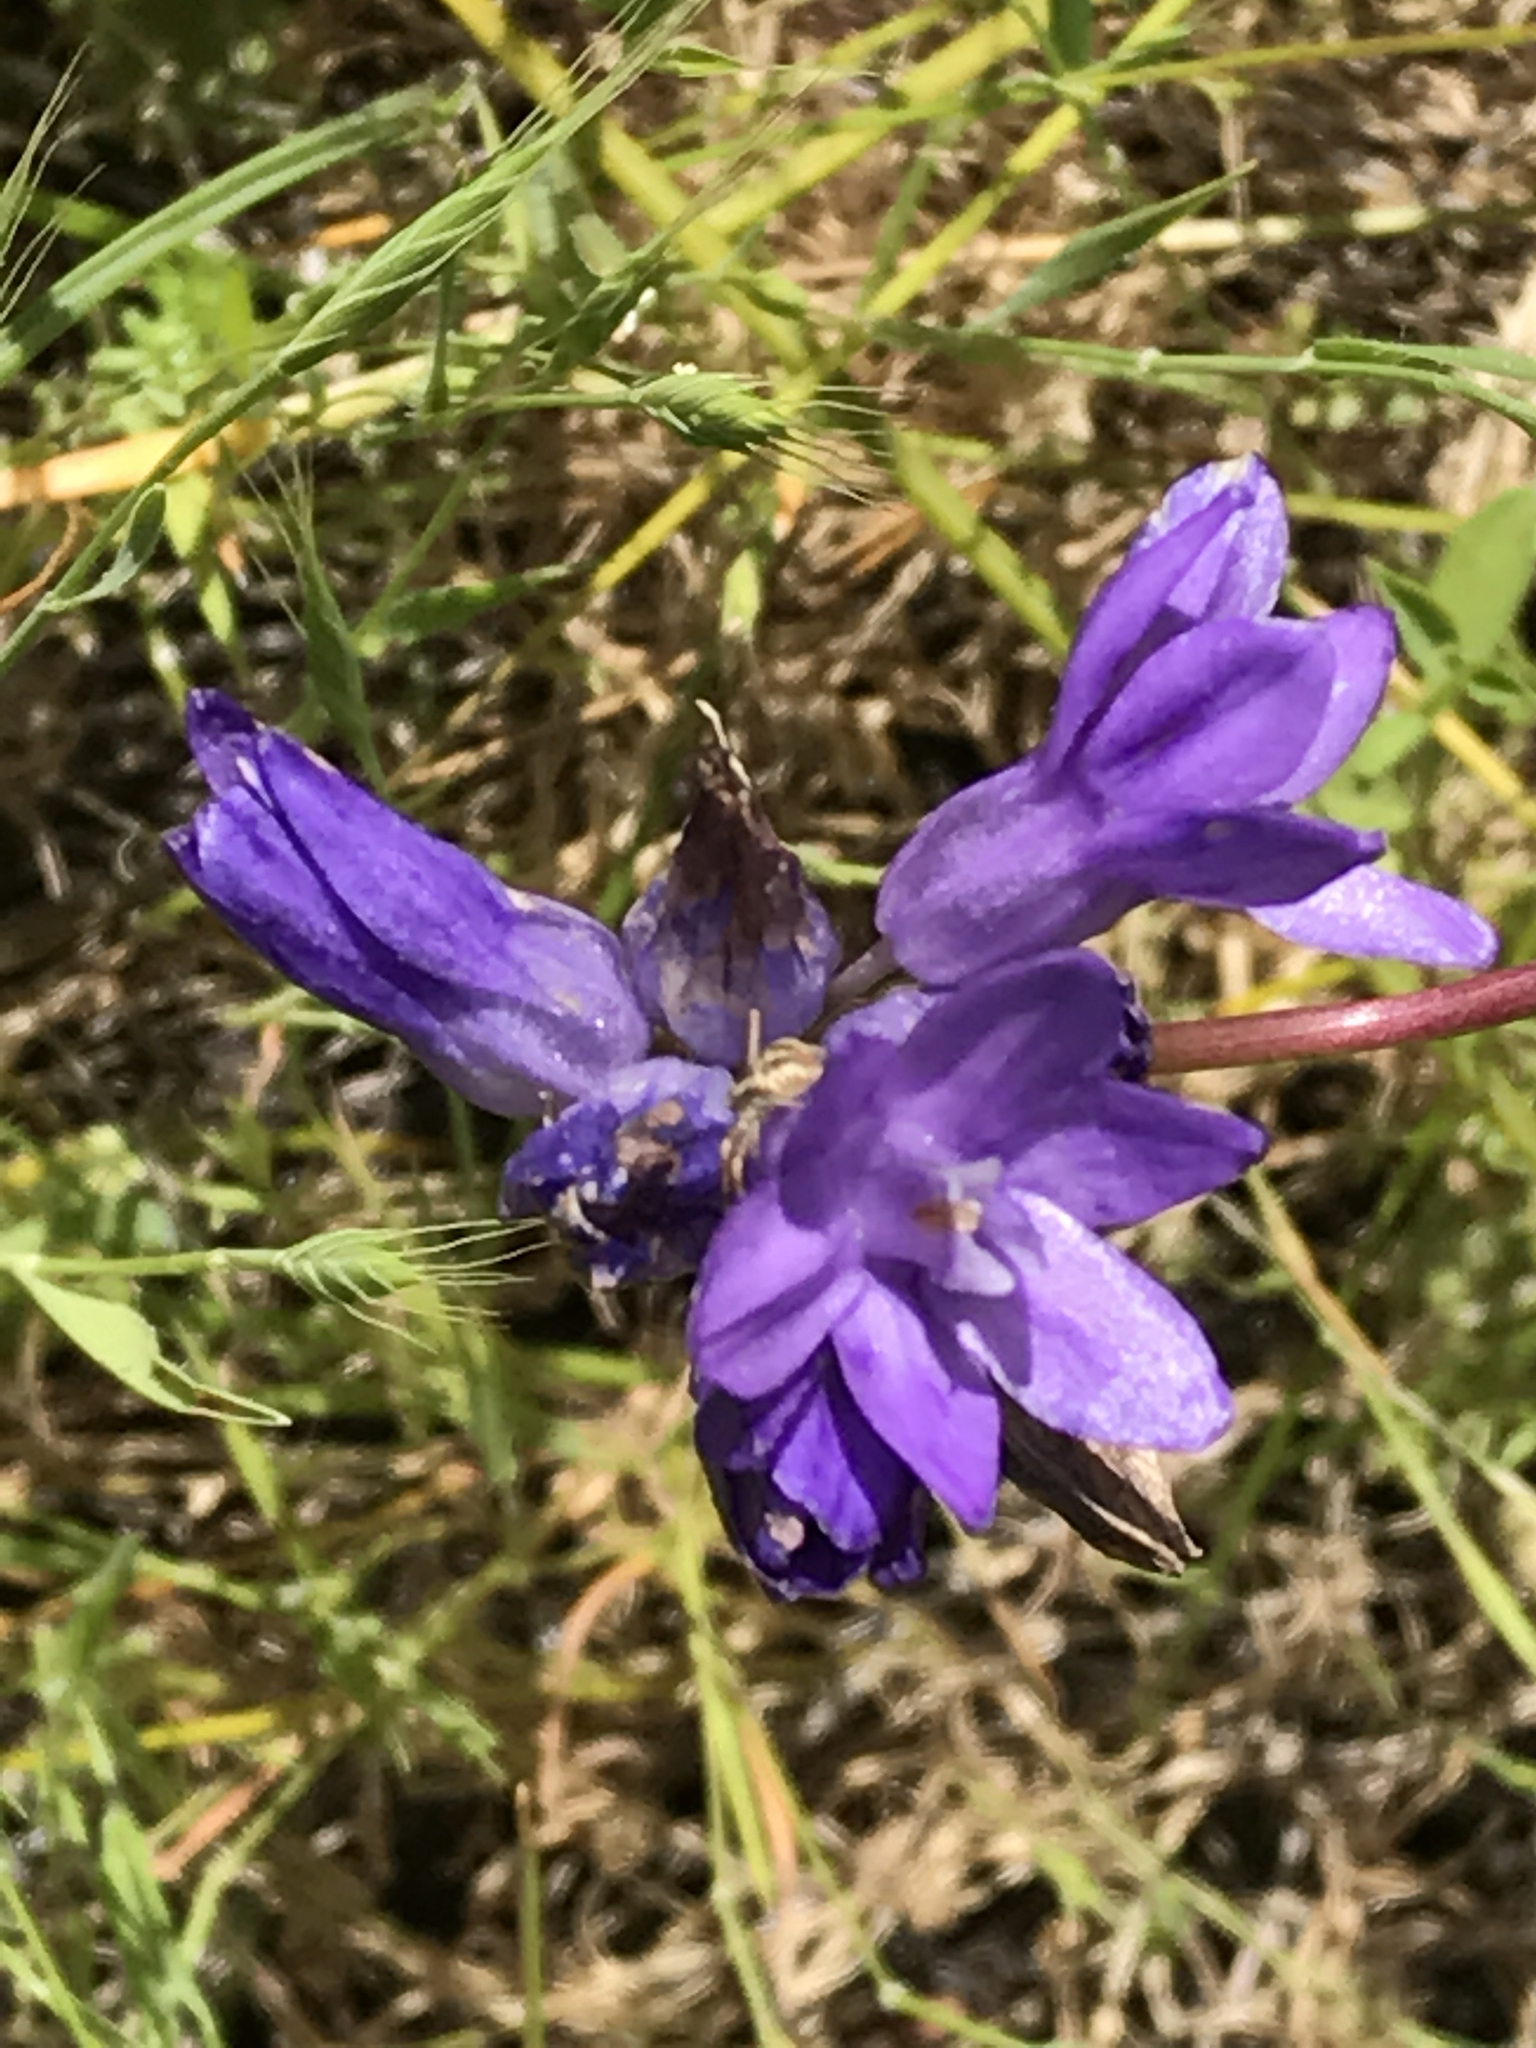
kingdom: Plantae
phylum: Tracheophyta
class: Liliopsida
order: Asparagales
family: Asparagaceae
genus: Dipterostemon
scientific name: Dipterostemon capitatus
